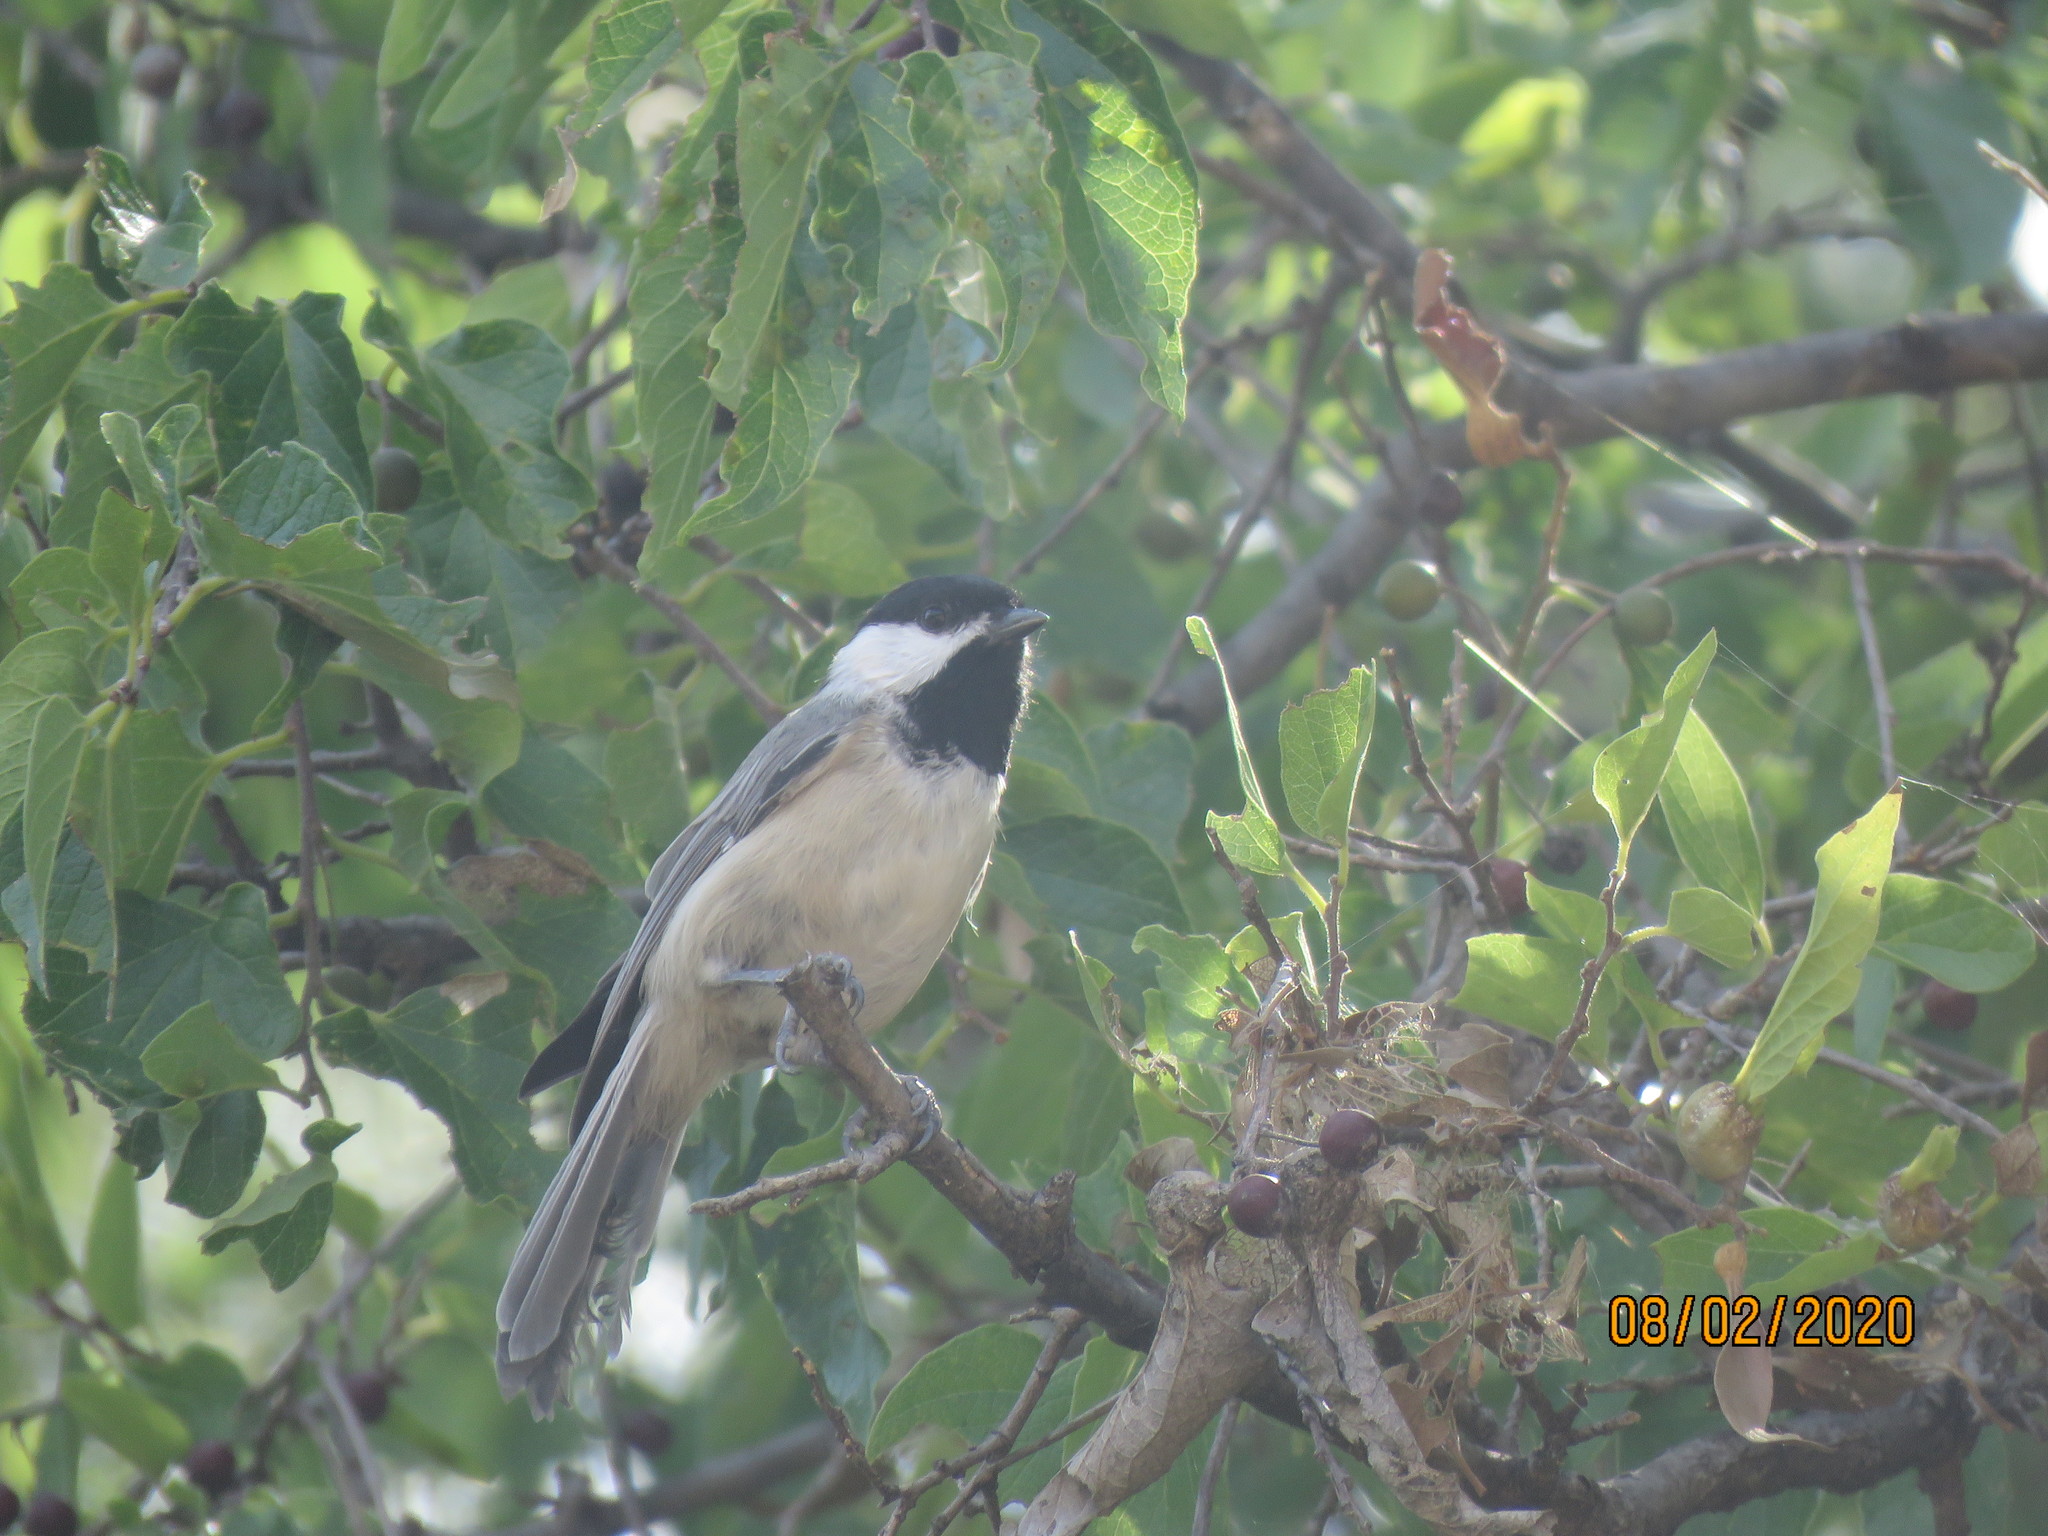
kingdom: Animalia
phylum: Chordata
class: Aves
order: Passeriformes
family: Paridae
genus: Poecile
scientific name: Poecile carolinensis
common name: Carolina chickadee
